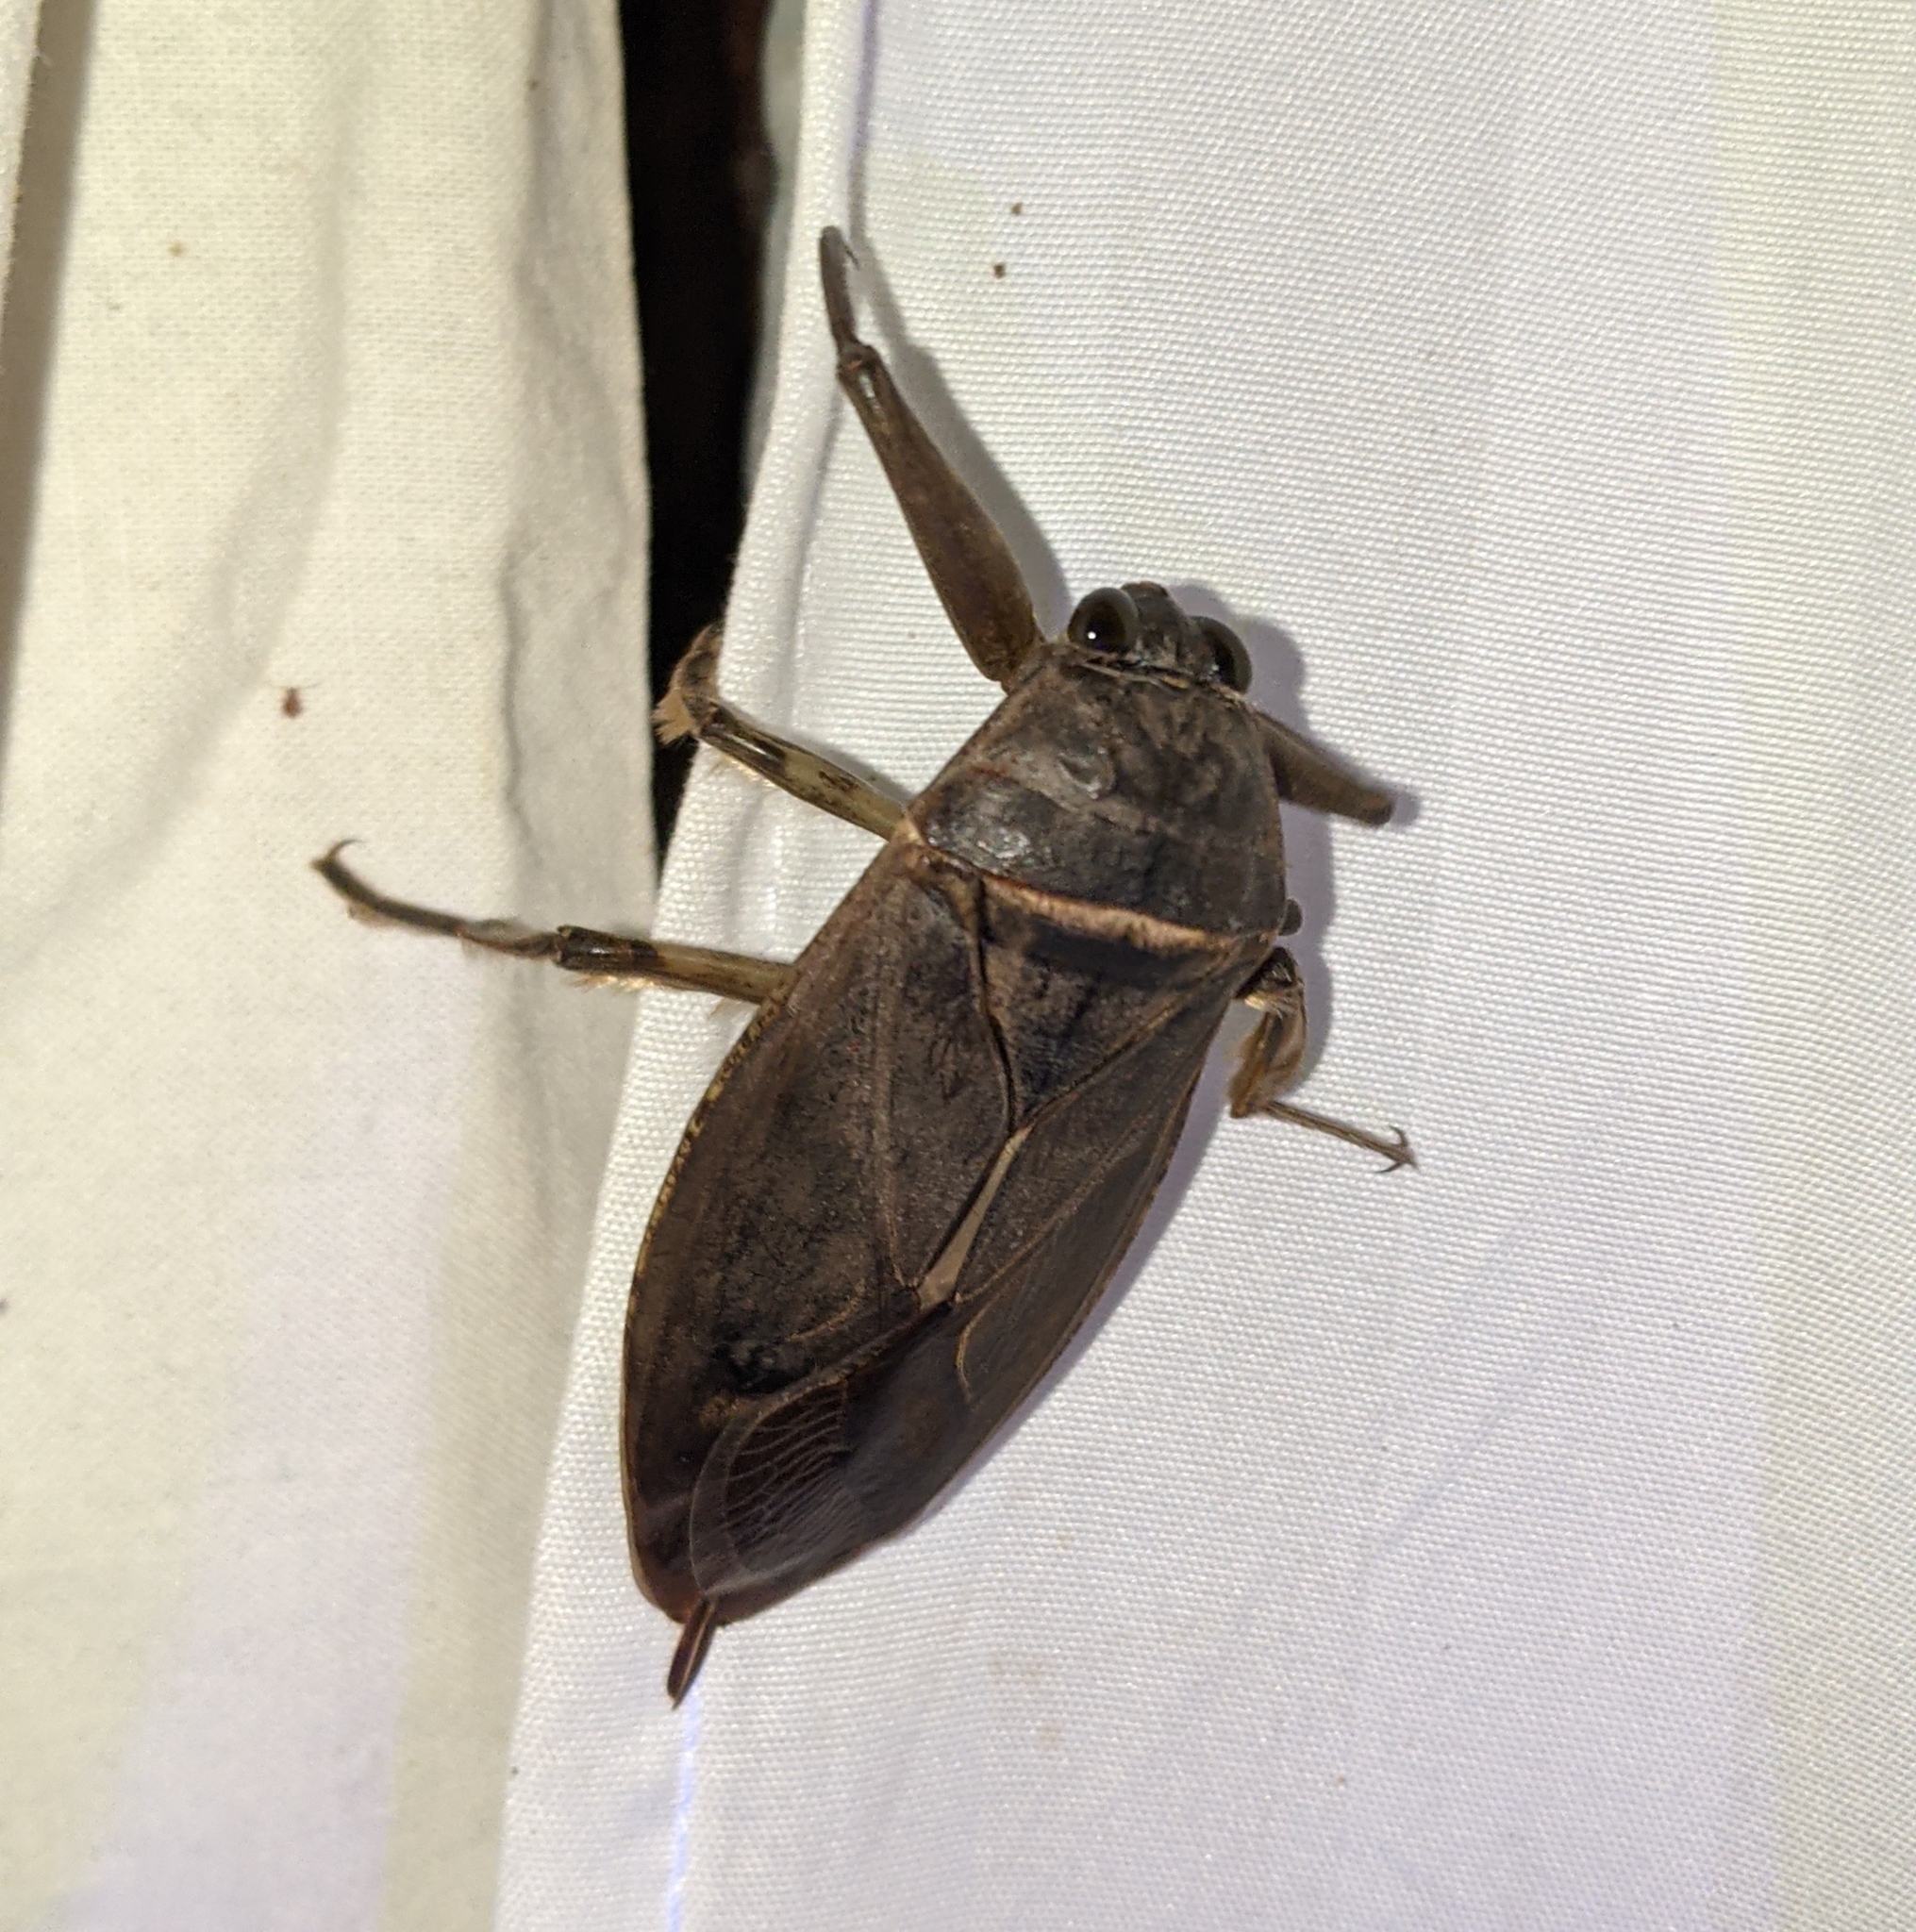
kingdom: Animalia
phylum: Arthropoda
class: Insecta
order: Hemiptera
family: Belostomatidae
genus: Lethocerus
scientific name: Lethocerus americanus
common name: Giant water bug
